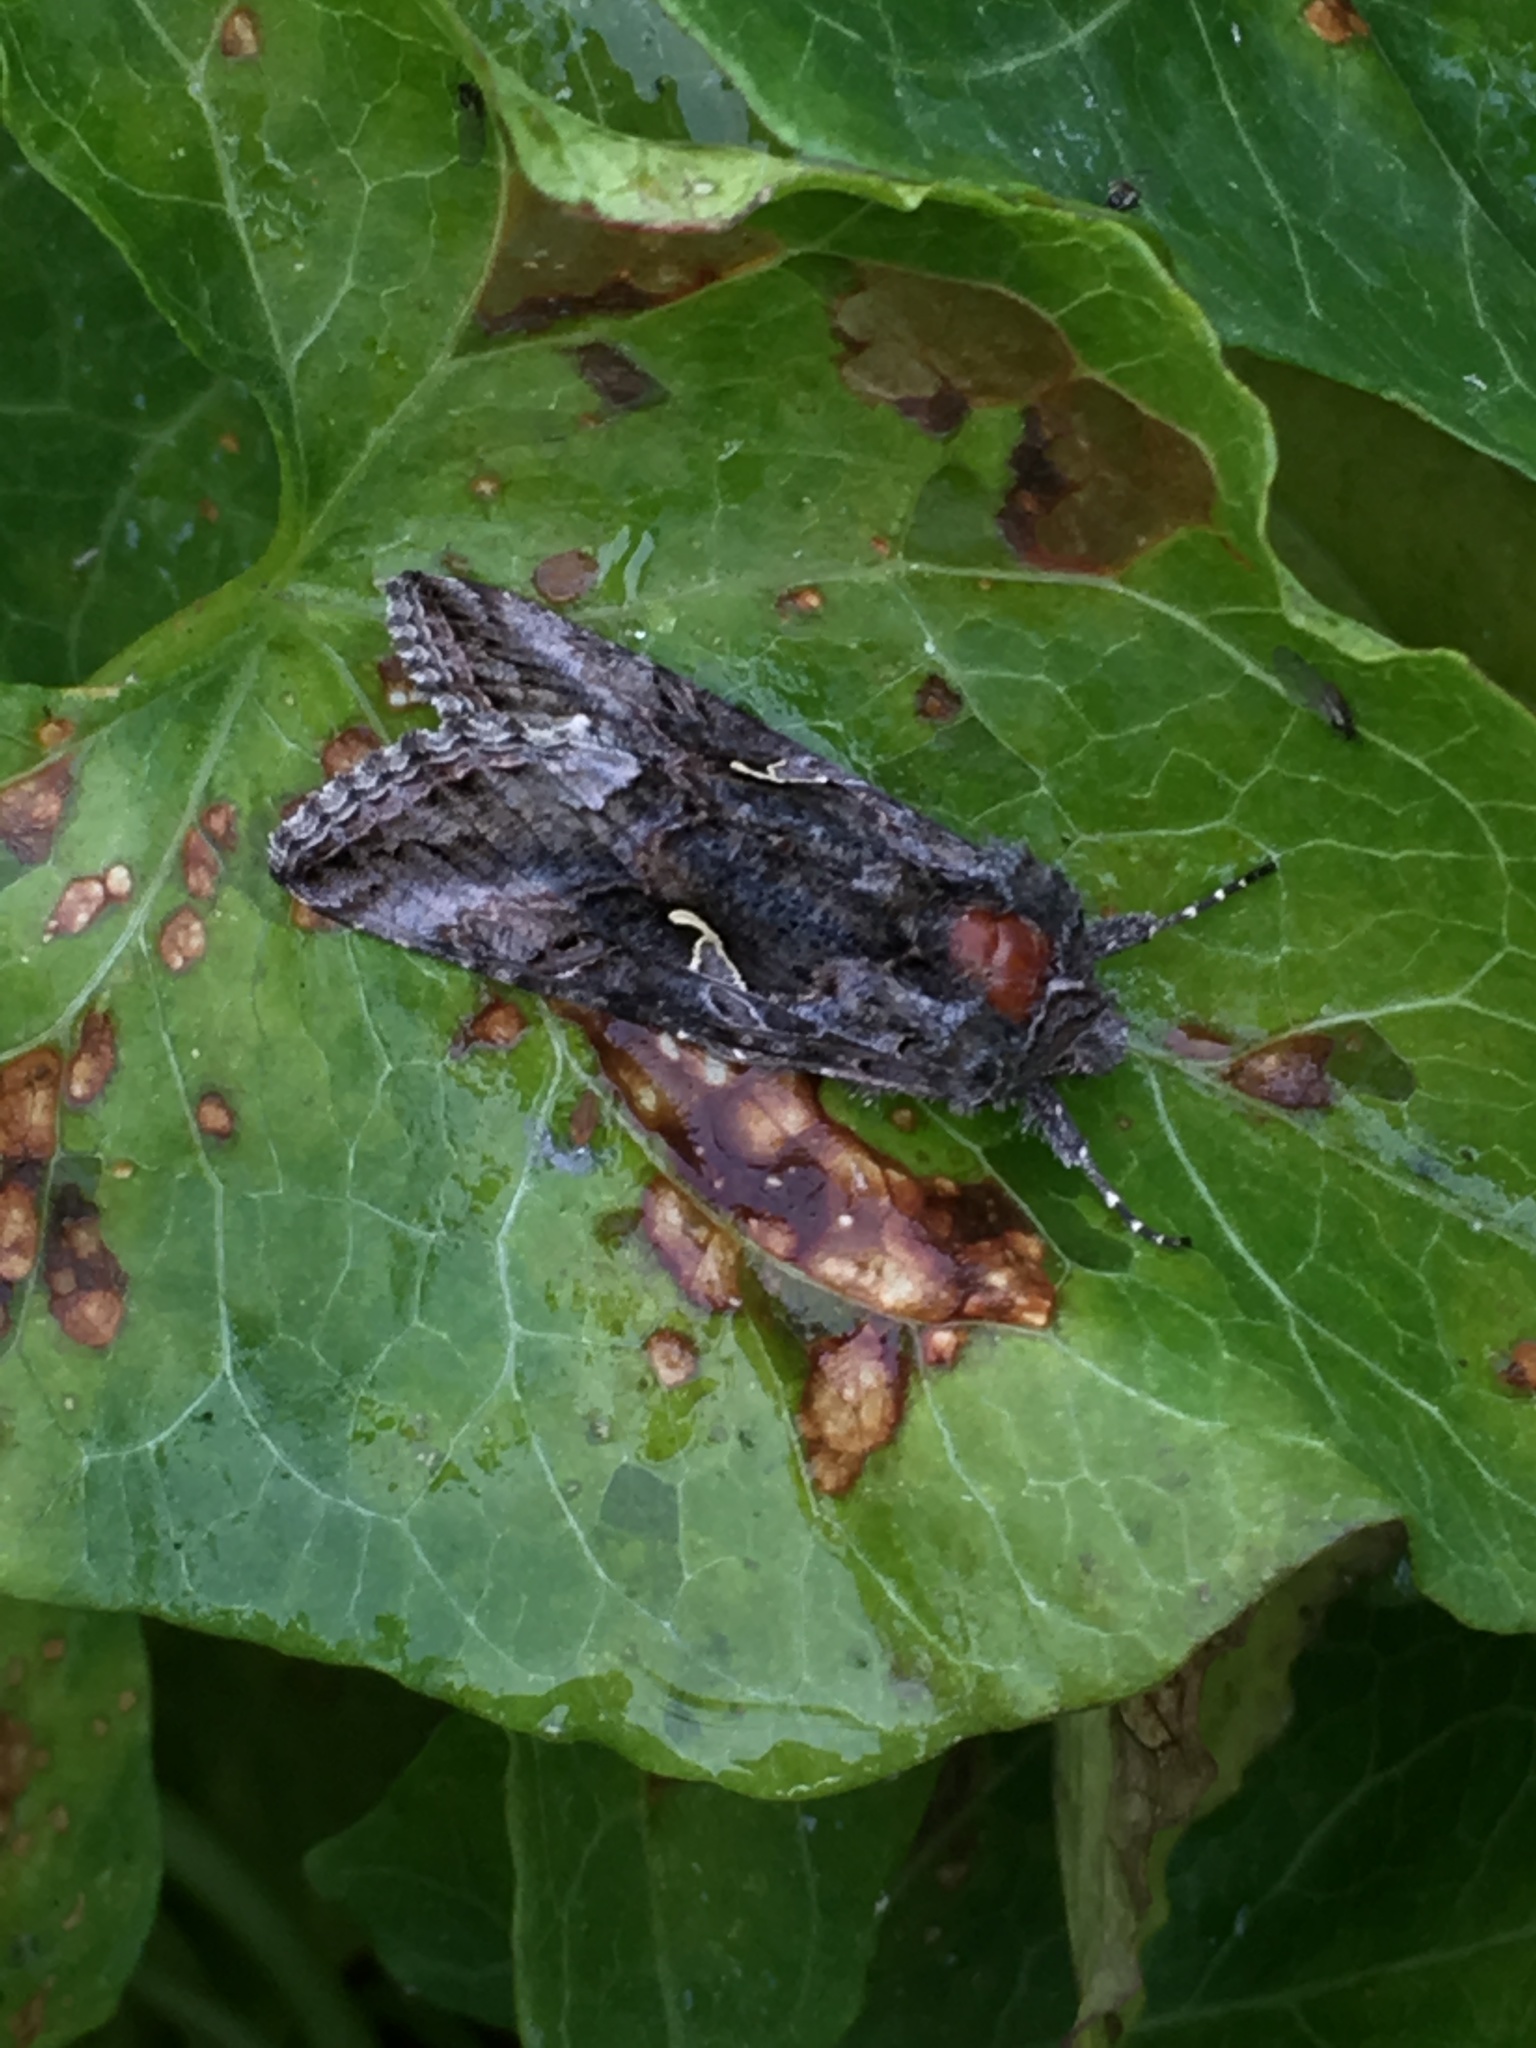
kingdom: Animalia
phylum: Arthropoda
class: Insecta
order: Lepidoptera
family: Noctuidae
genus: Autographa
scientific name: Autographa californica
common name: Alfalfa looper
